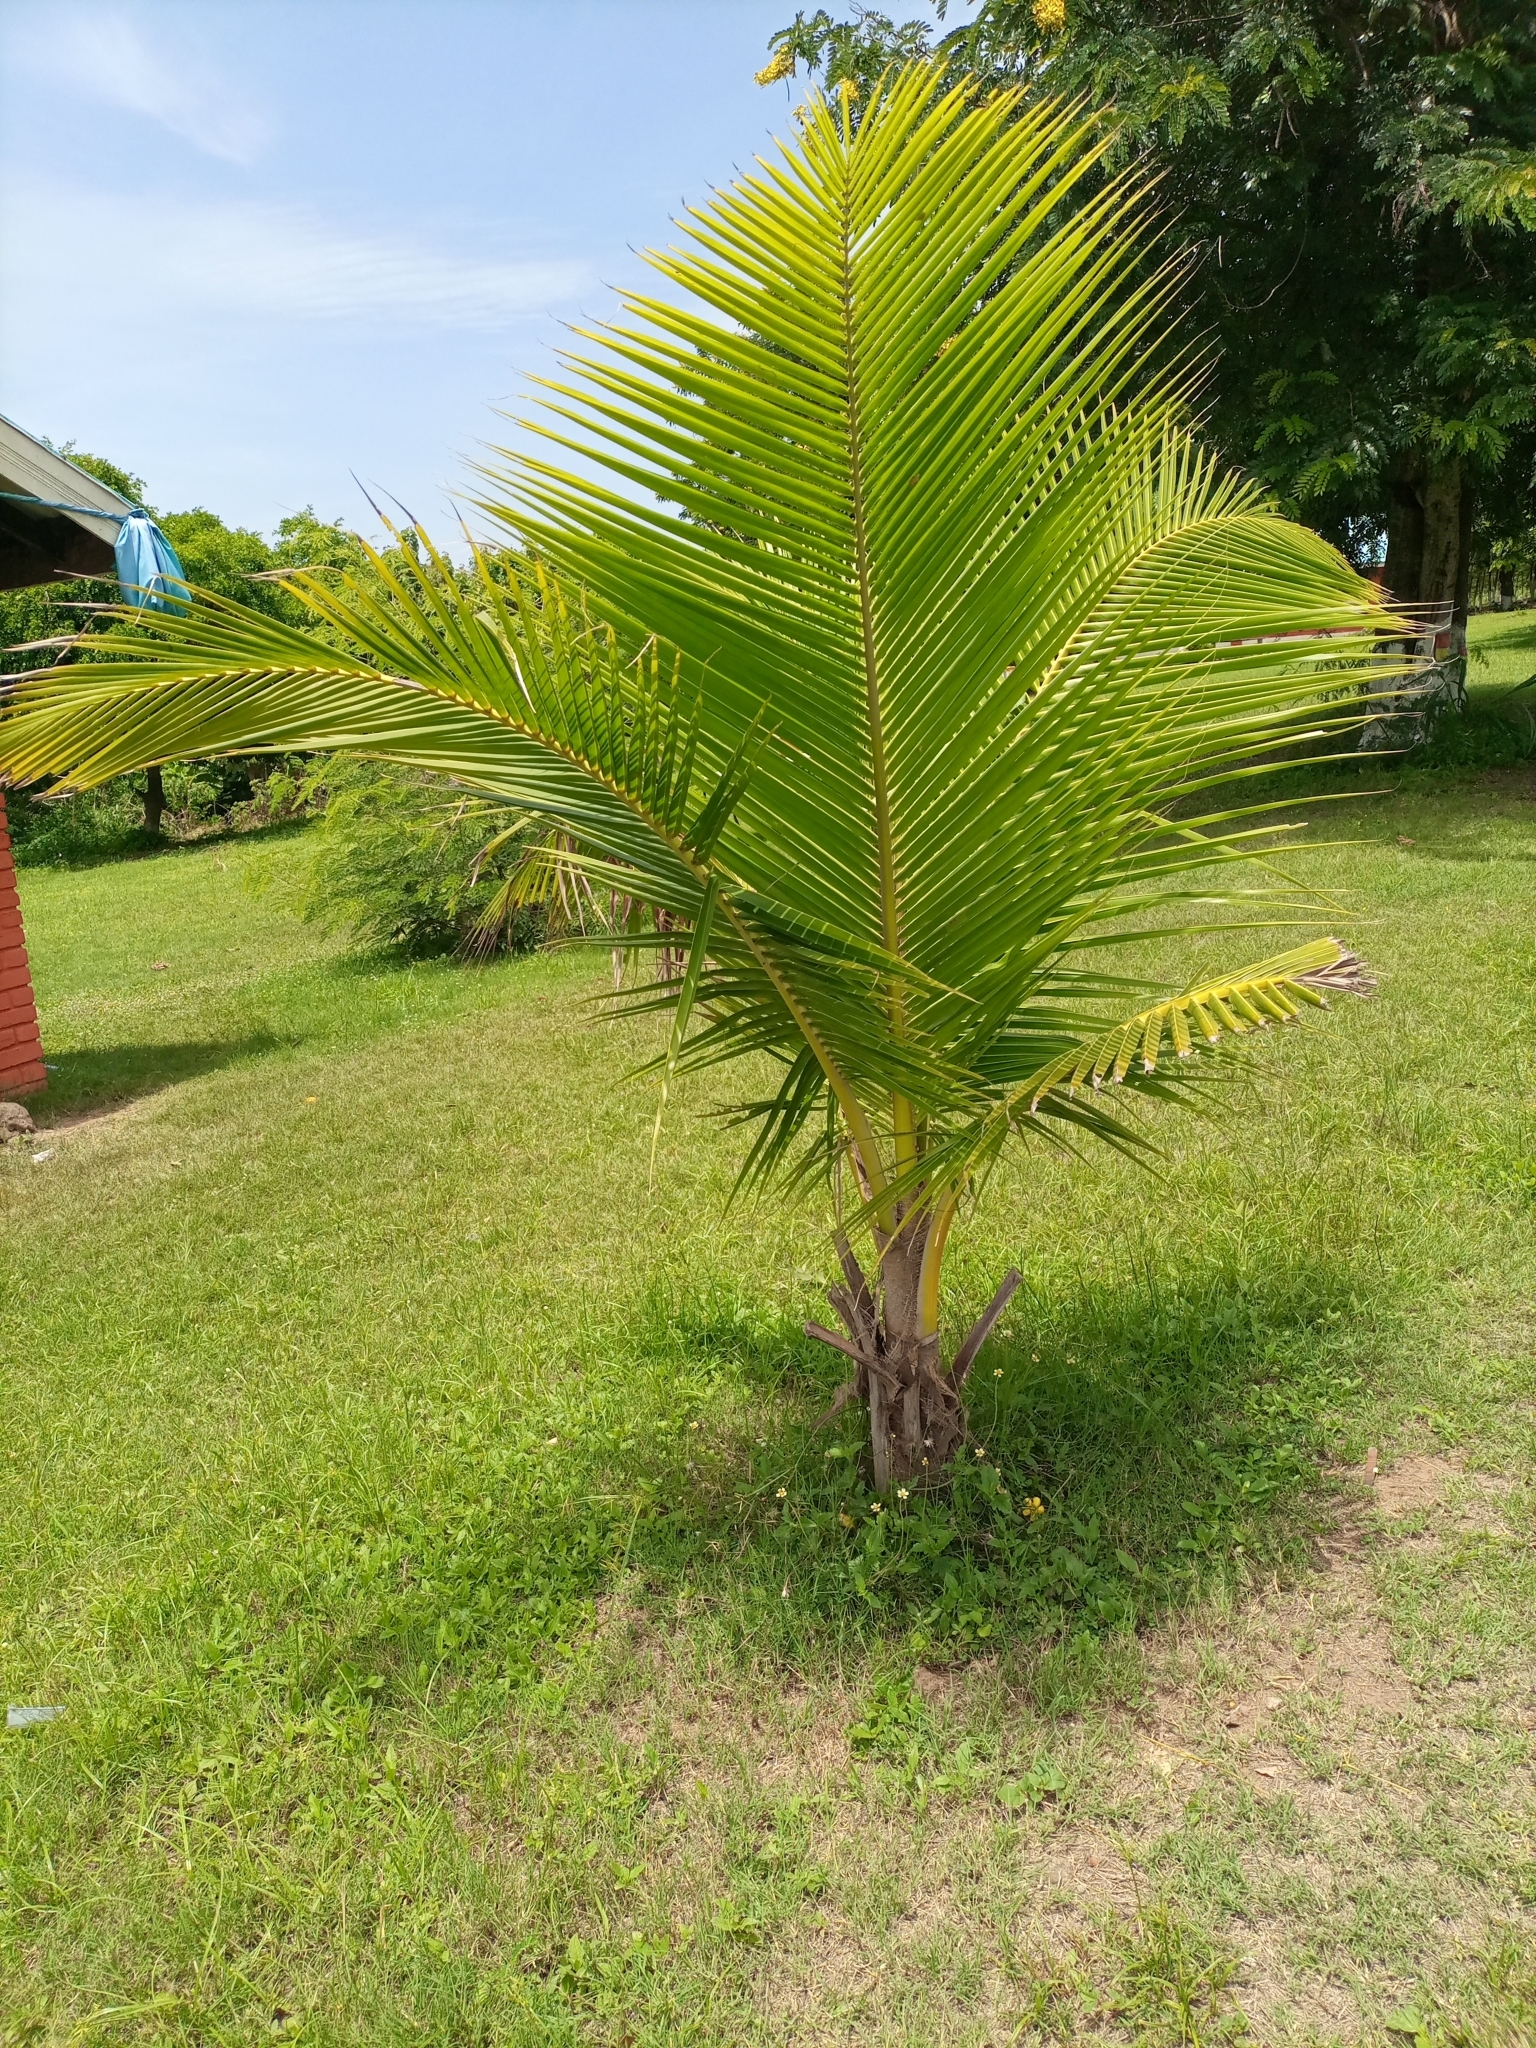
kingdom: Plantae
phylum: Tracheophyta
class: Liliopsida
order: Arecales
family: Arecaceae
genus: Cocos
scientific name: Cocos nucifera
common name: Coconut palm
